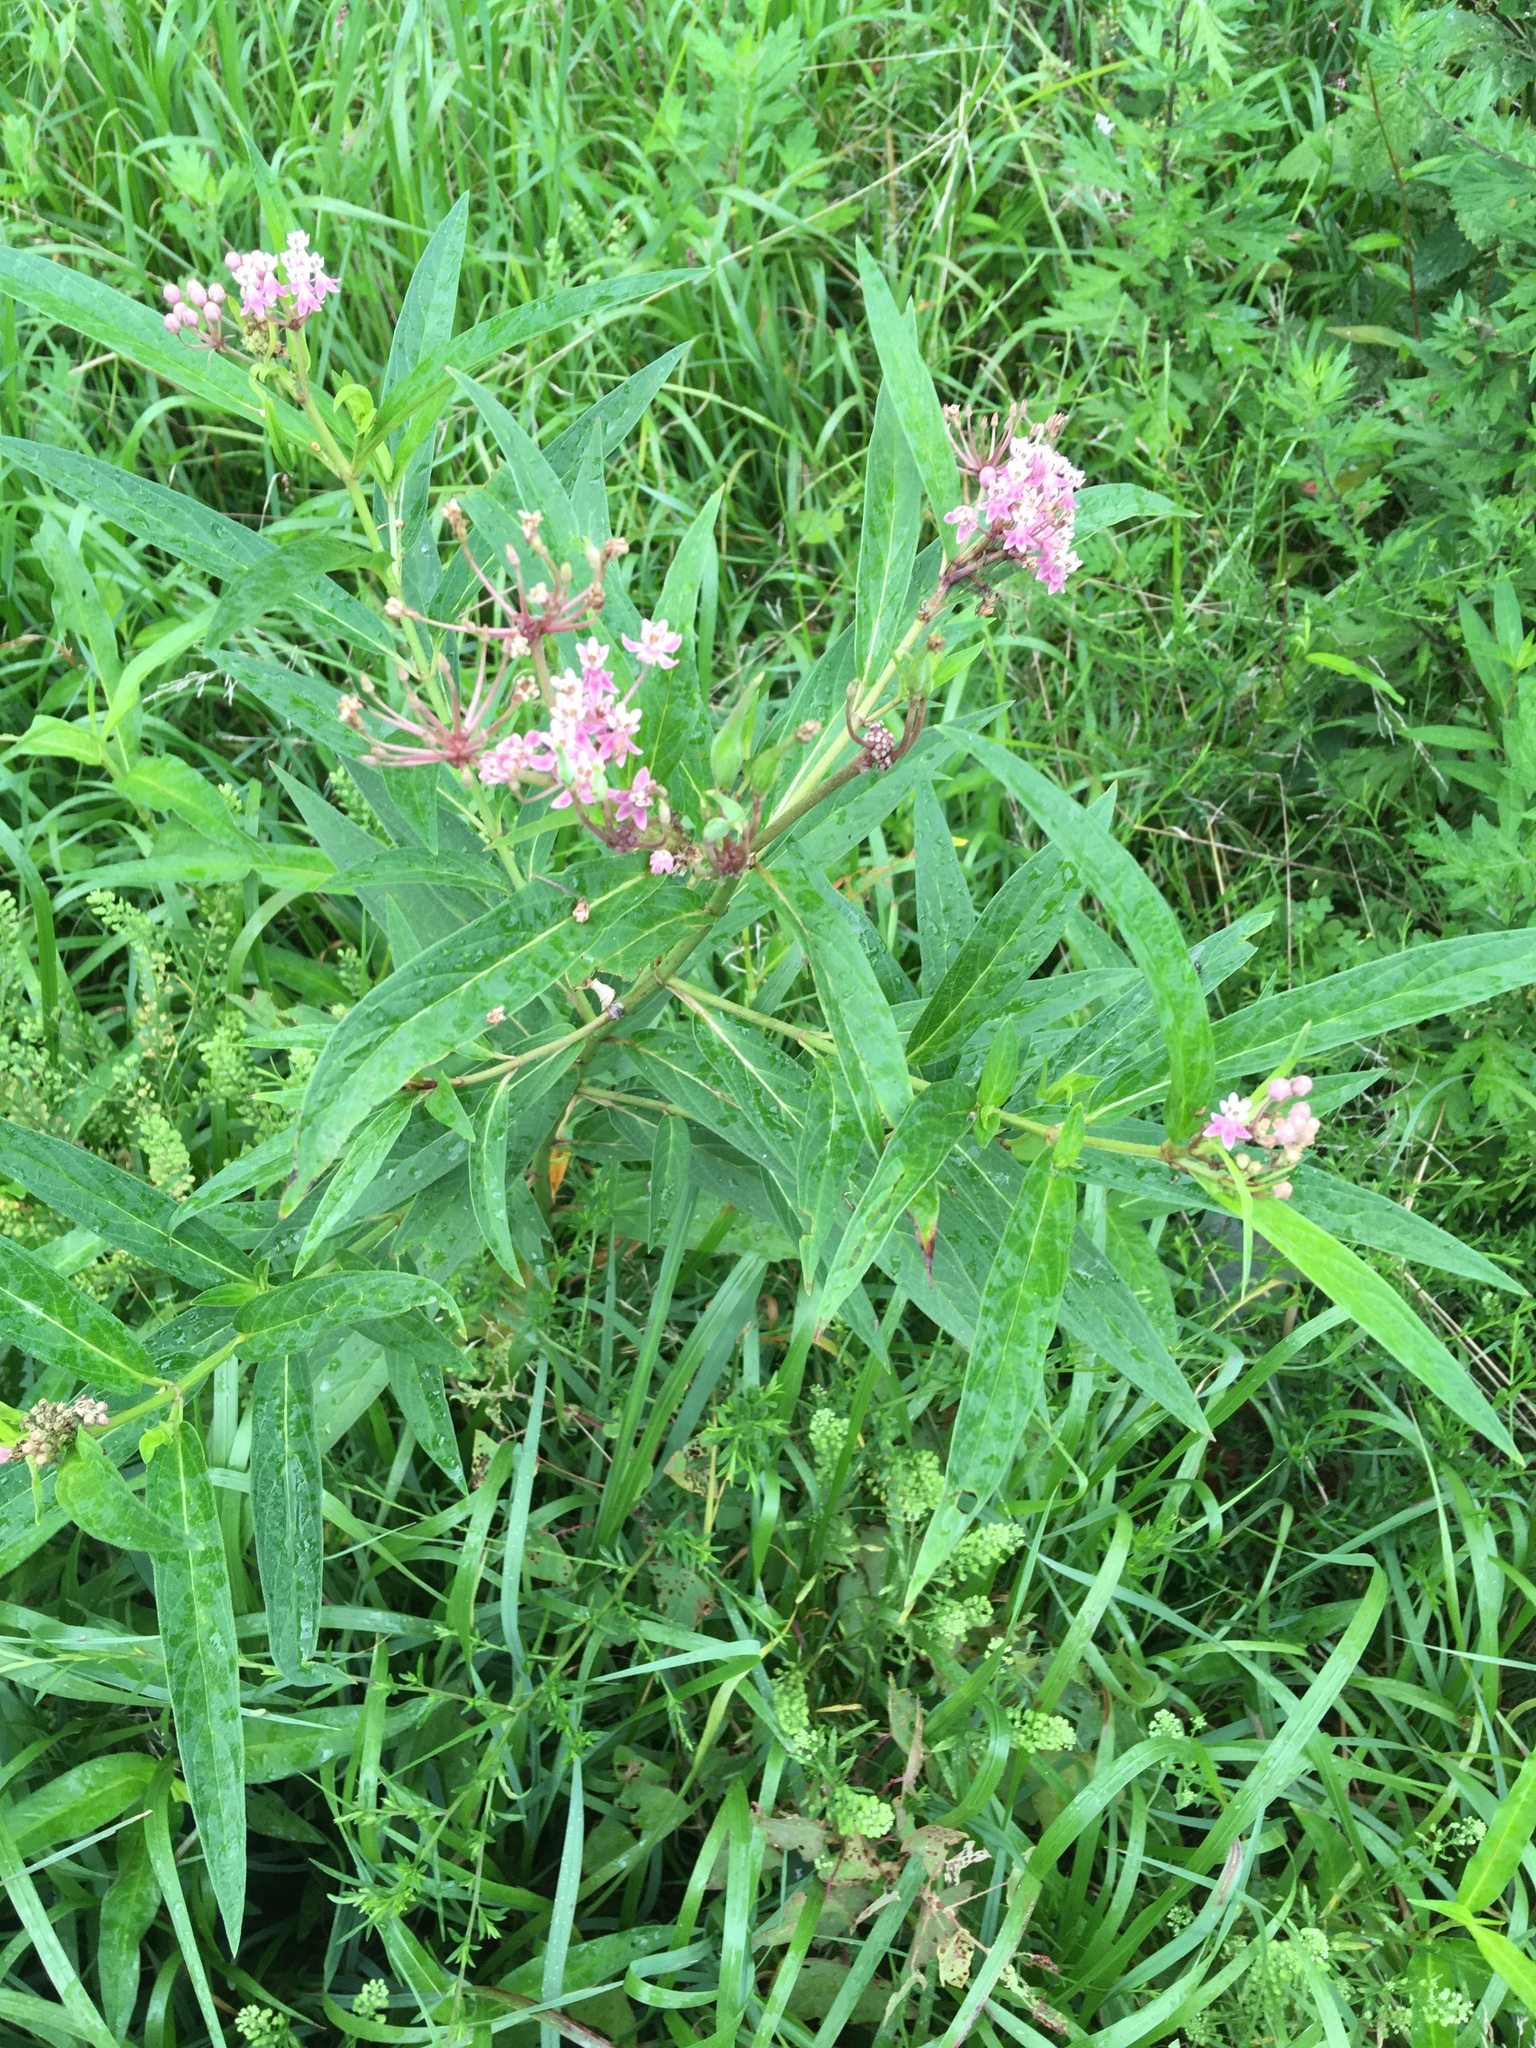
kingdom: Plantae
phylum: Tracheophyta
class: Magnoliopsida
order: Gentianales
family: Apocynaceae
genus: Asclepias
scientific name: Asclepias incarnata
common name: Swamp milkweed
